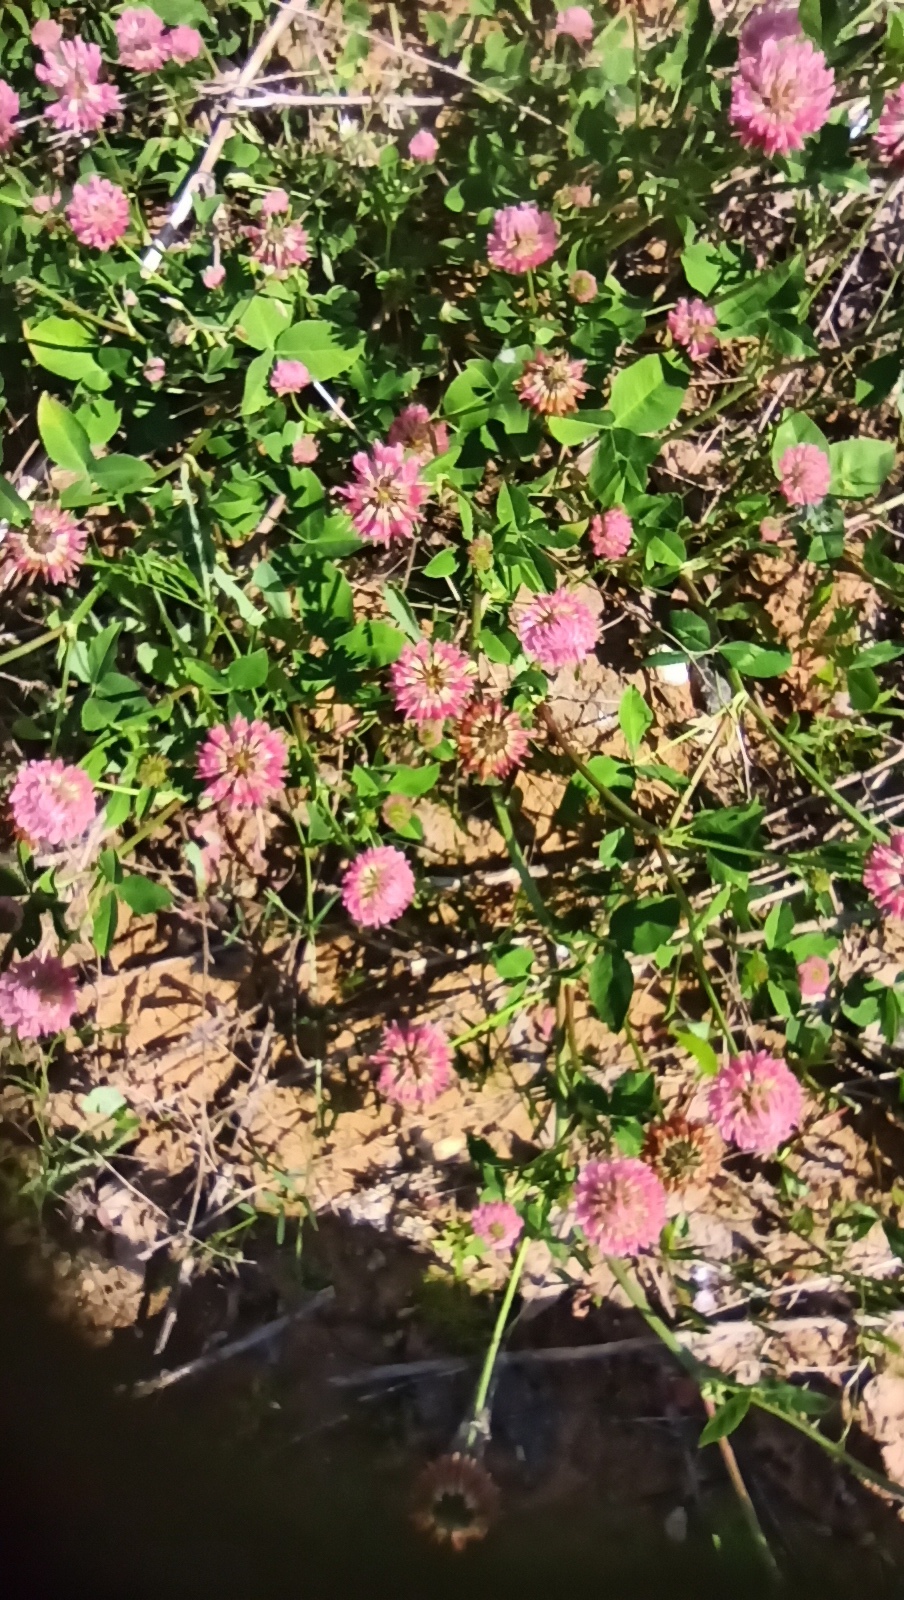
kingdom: Plantae
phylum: Tracheophyta
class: Magnoliopsida
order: Fabales
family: Fabaceae
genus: Trifolium
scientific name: Trifolium hybridum
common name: Alsike clover
